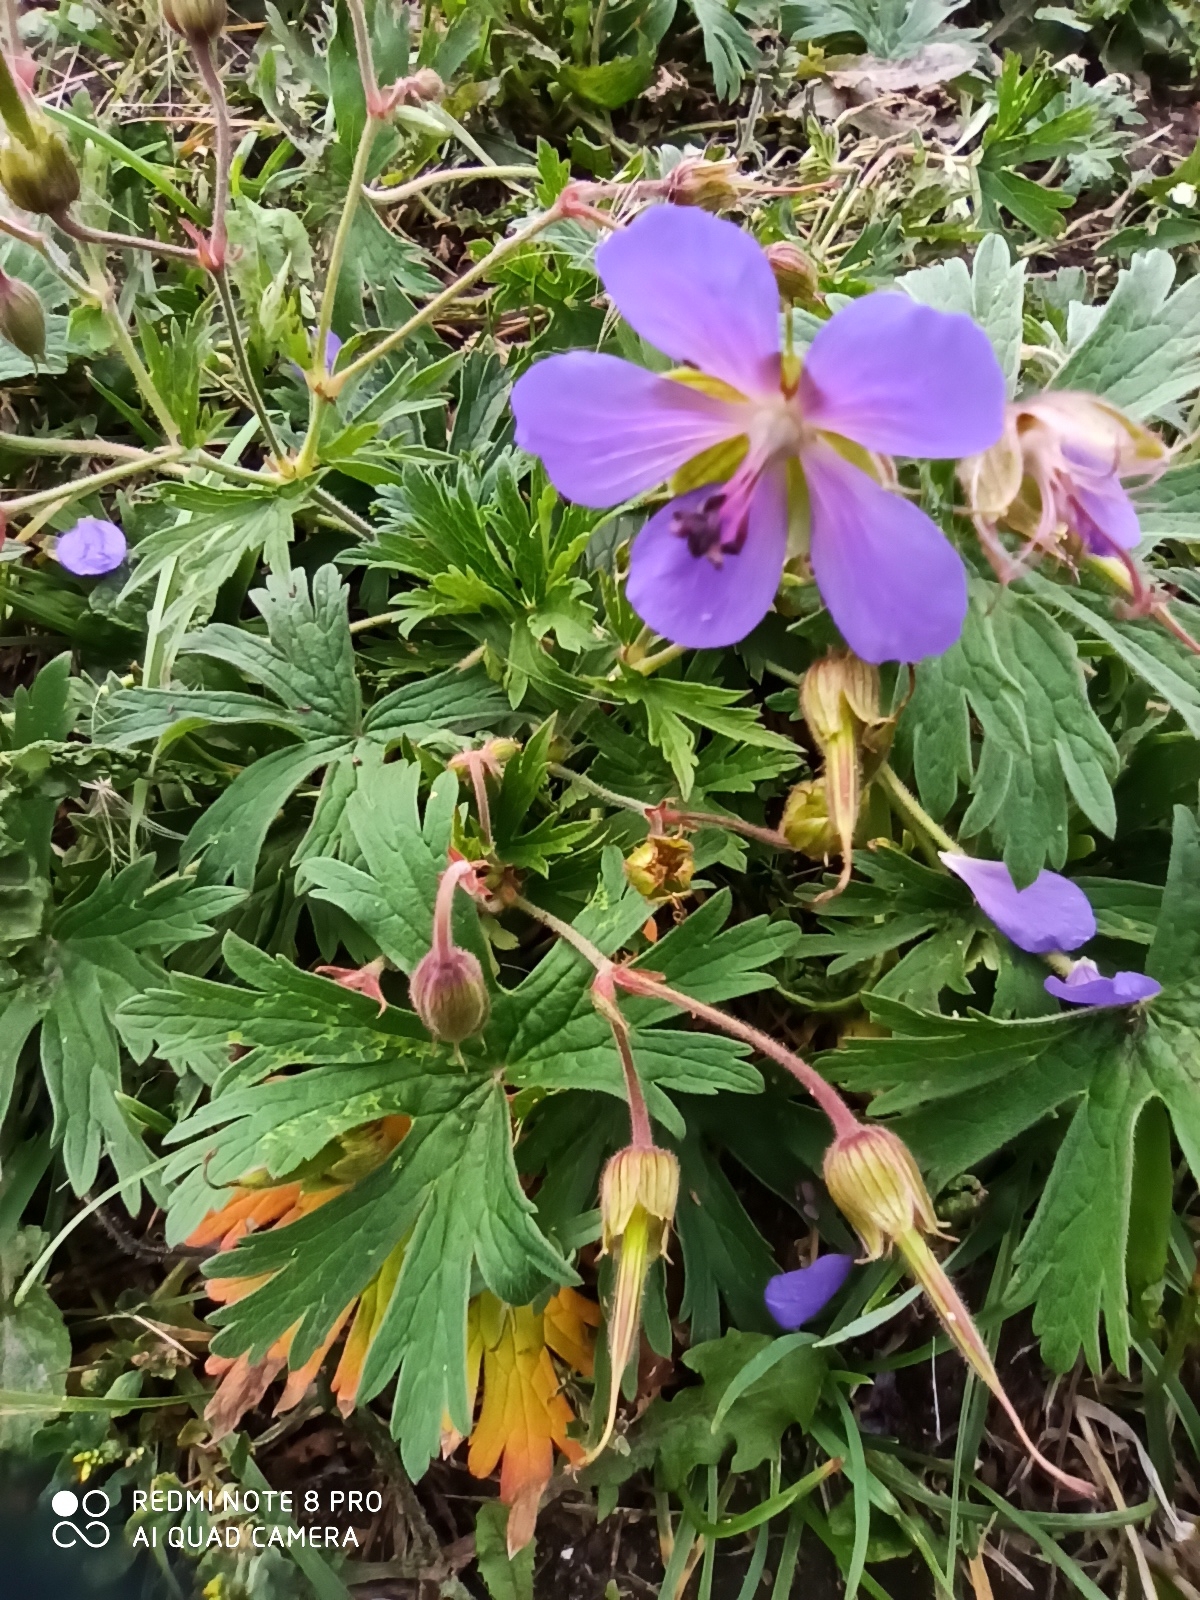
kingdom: Plantae
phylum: Tracheophyta
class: Magnoliopsida
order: Geraniales
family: Geraniaceae
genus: Geranium
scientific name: Geranium pratense
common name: Meadow crane's-bill
